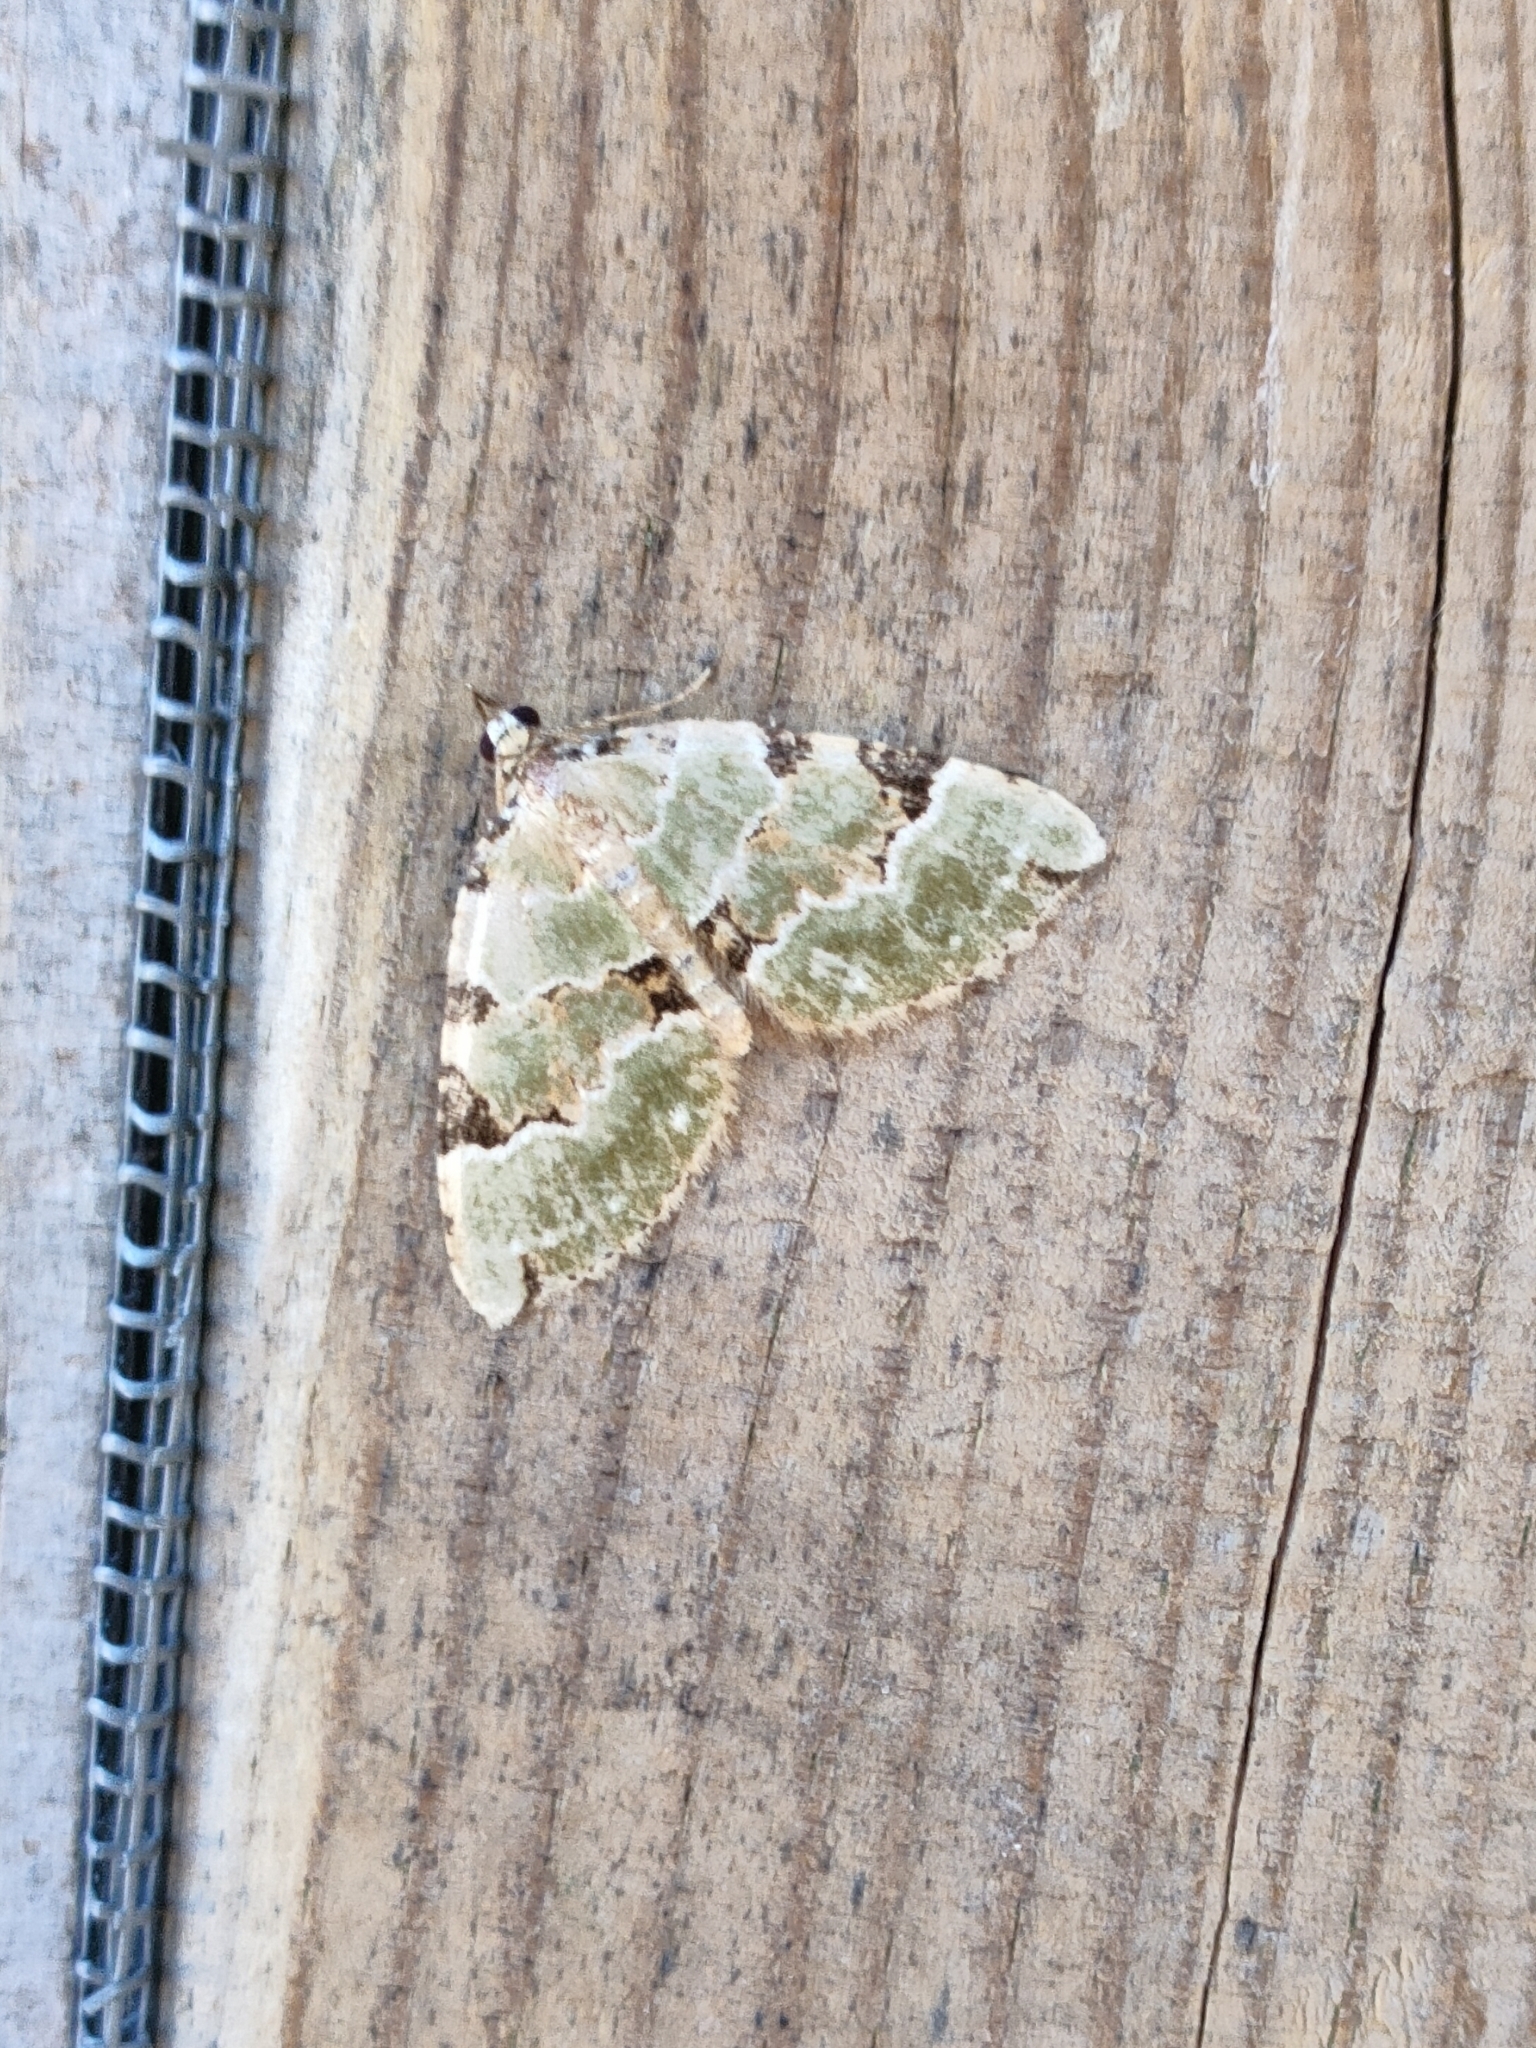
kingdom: Animalia
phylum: Arthropoda
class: Insecta
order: Lepidoptera
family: Geometridae
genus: Colostygia
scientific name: Colostygia pectinataria
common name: Green carpet
